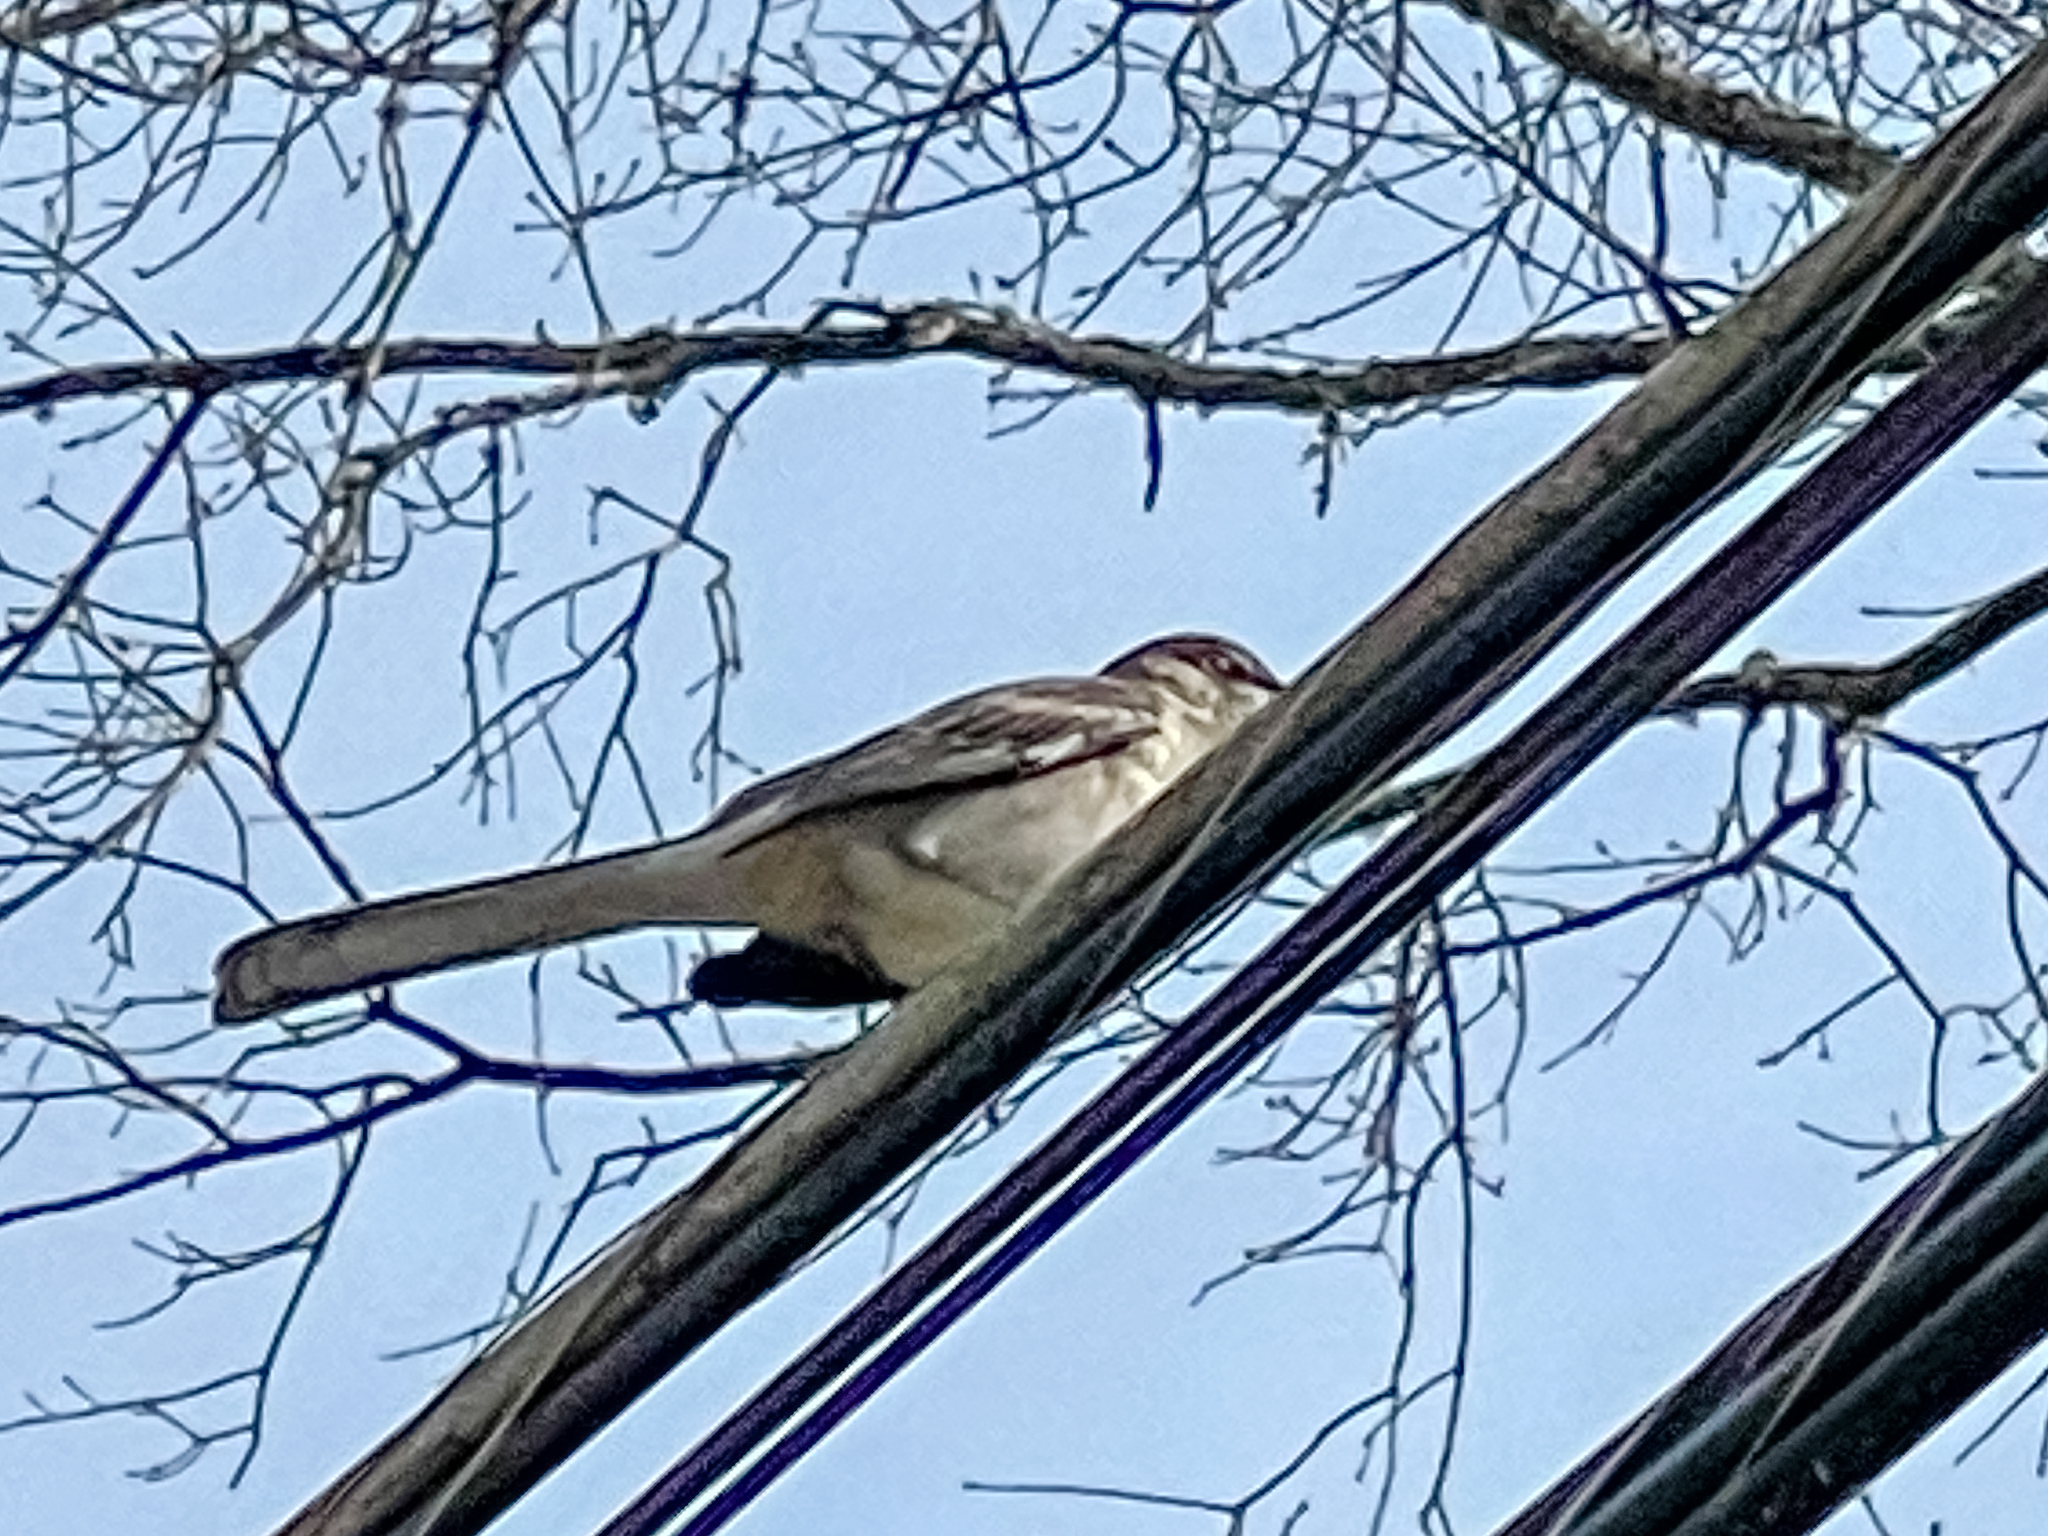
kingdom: Animalia
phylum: Chordata
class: Aves
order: Passeriformes
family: Mimidae
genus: Mimus
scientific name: Mimus polyglottos
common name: Northern mockingbird
